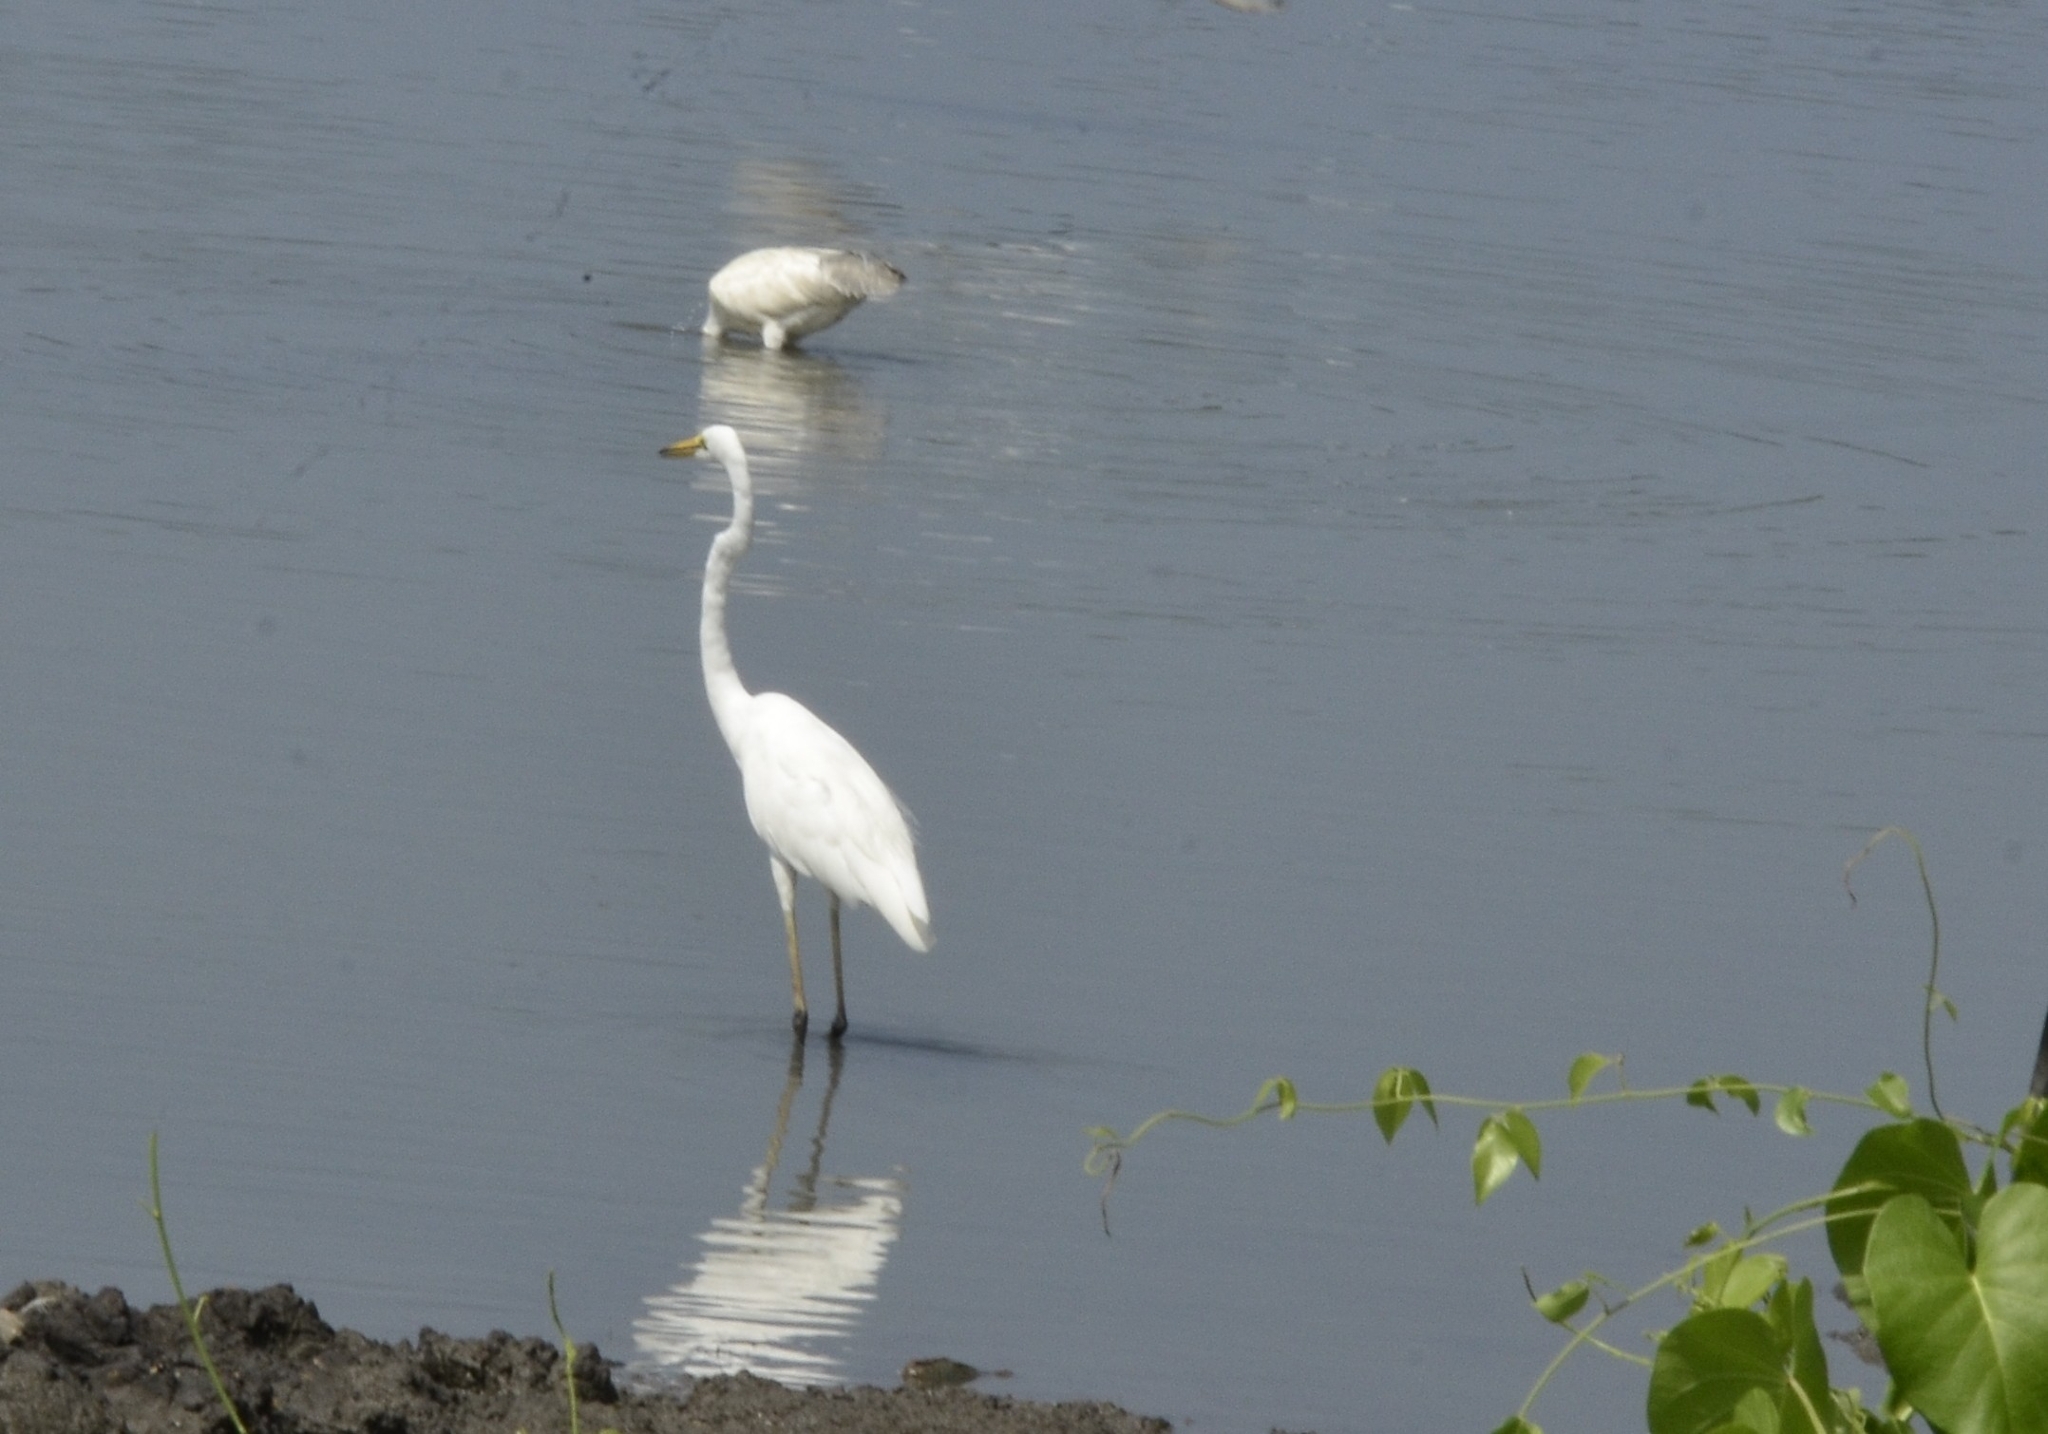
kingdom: Animalia
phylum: Chordata
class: Aves
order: Pelecaniformes
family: Ardeidae
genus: Ardea
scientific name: Ardea alba
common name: Great egret
